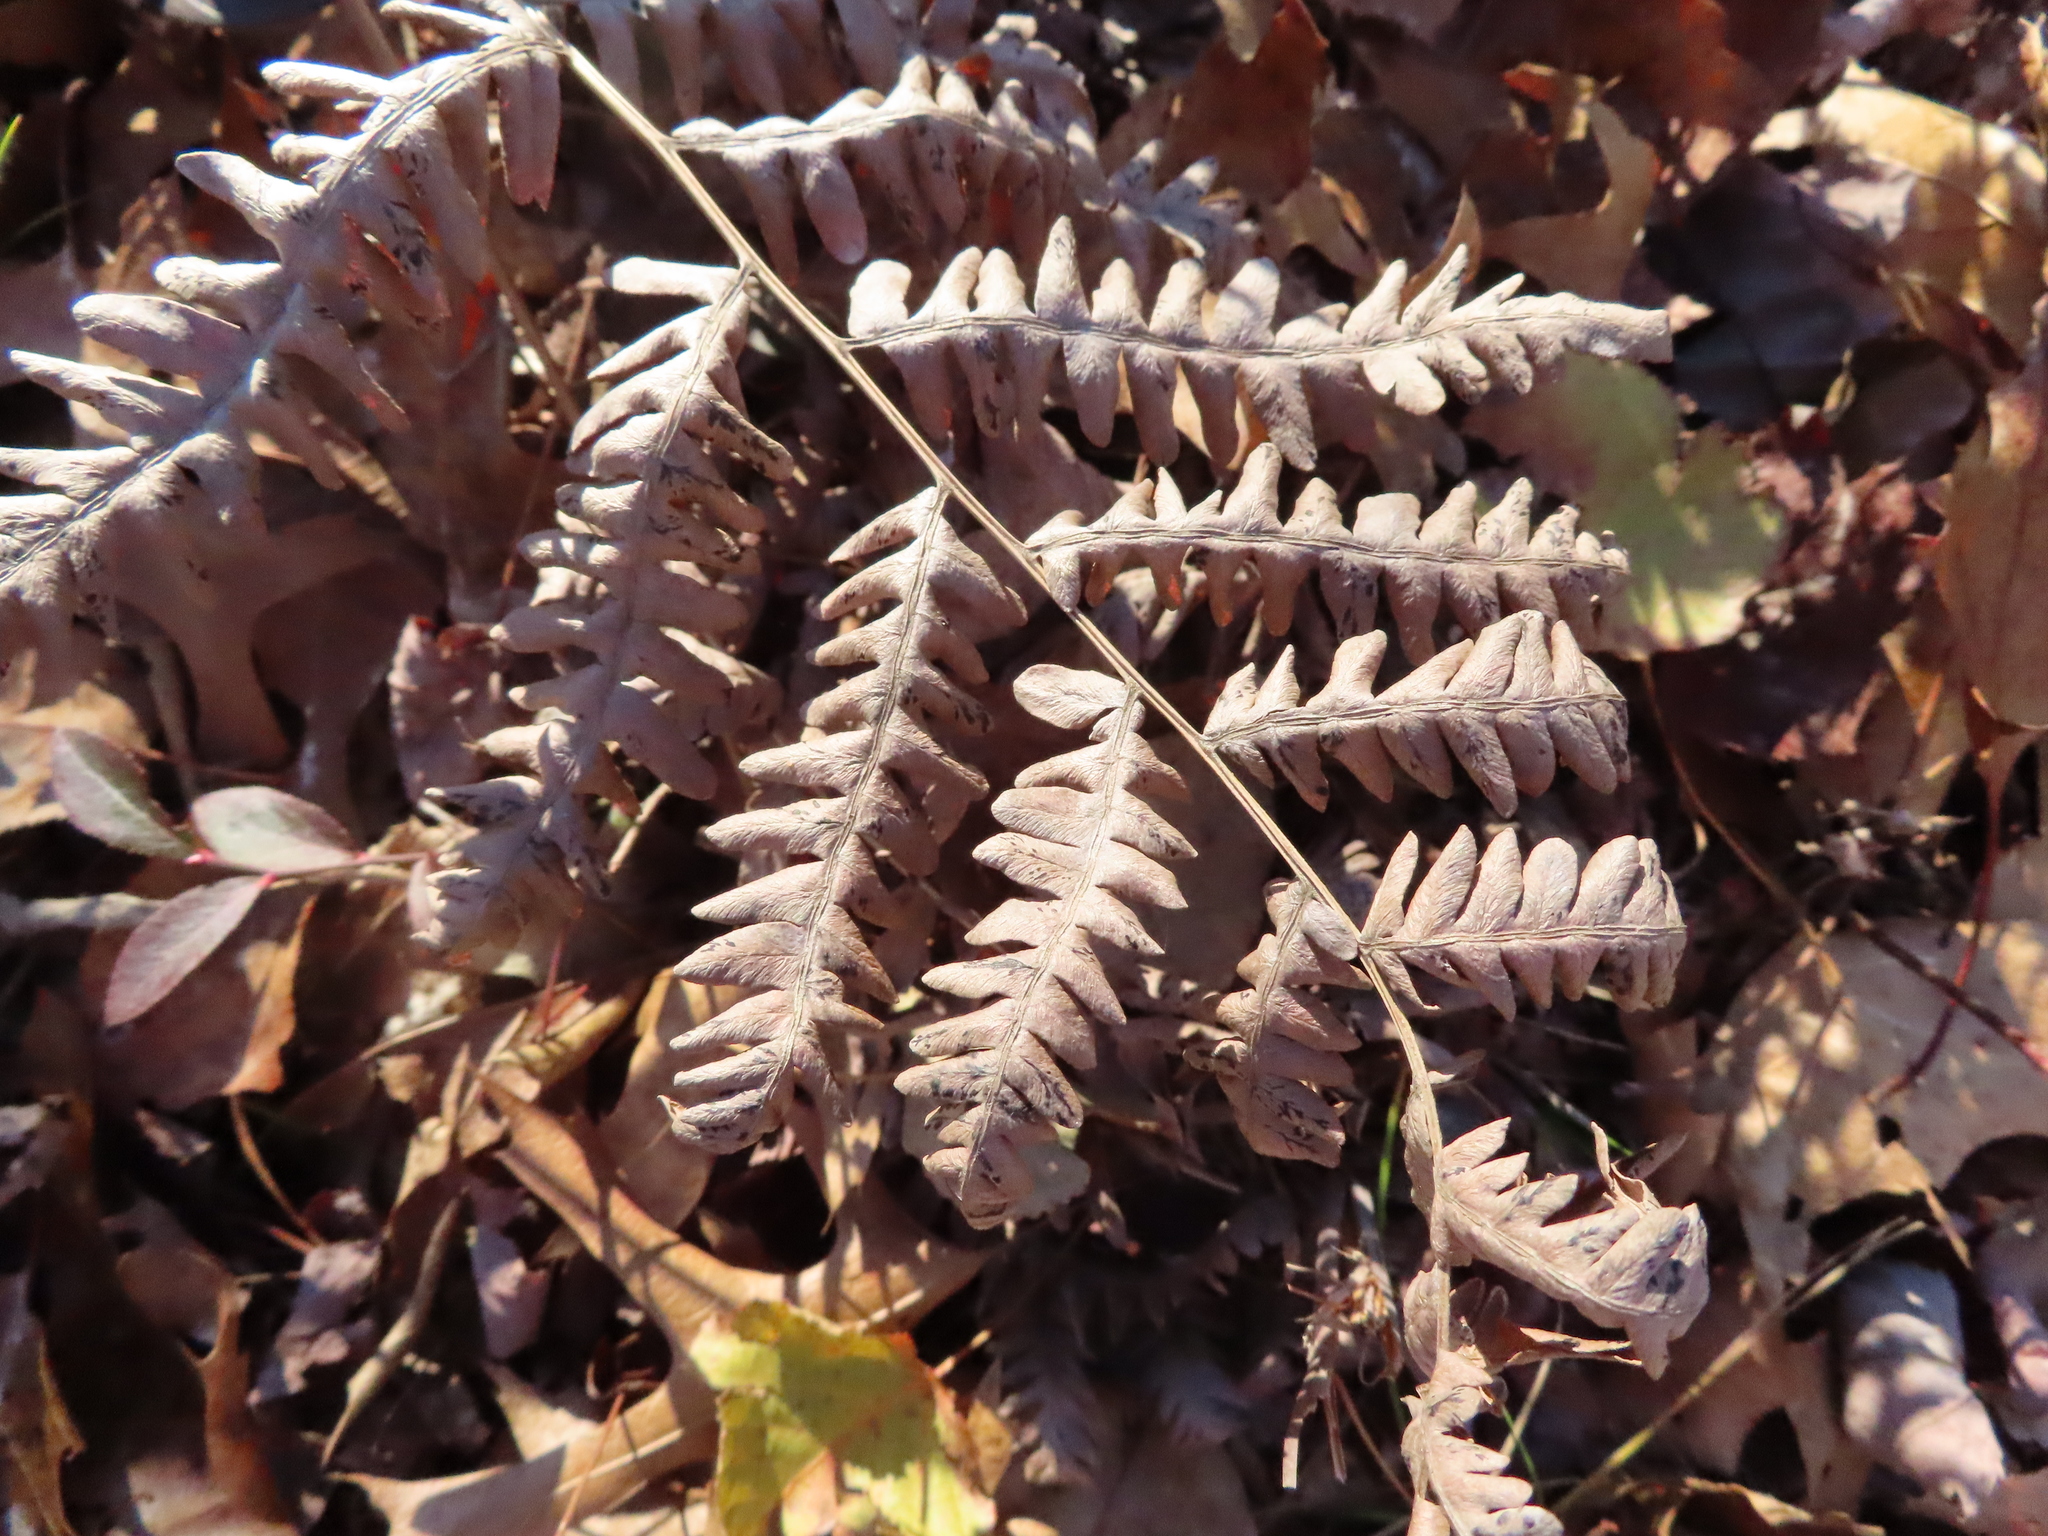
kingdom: Plantae
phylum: Tracheophyta
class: Polypodiopsida
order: Polypodiales
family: Dennstaedtiaceae
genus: Pteridium
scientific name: Pteridium aquilinum
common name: Bracken
